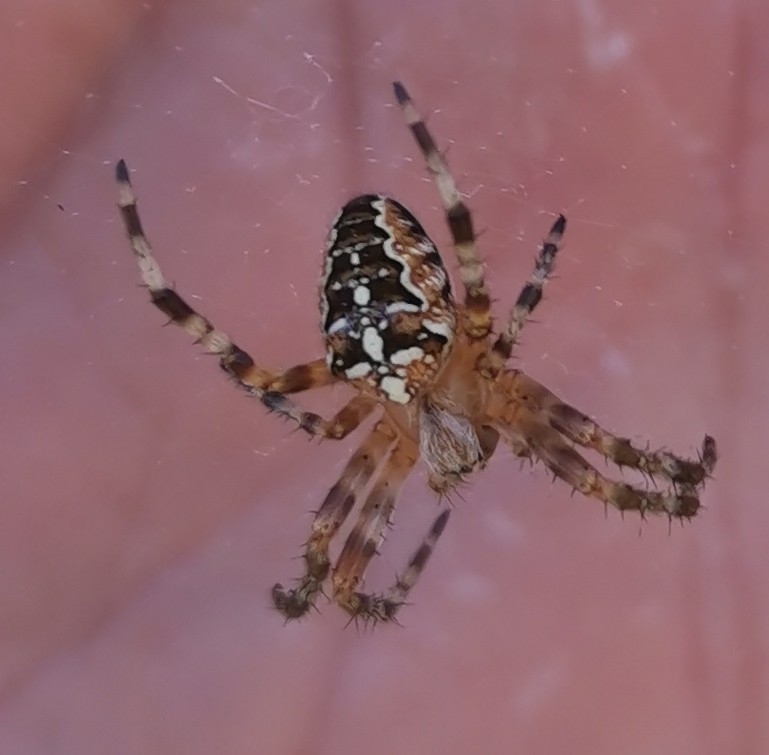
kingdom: Animalia
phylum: Arthropoda
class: Arachnida
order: Araneae
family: Araneidae
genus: Araneus
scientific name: Araneus diadematus
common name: Cross orbweaver
